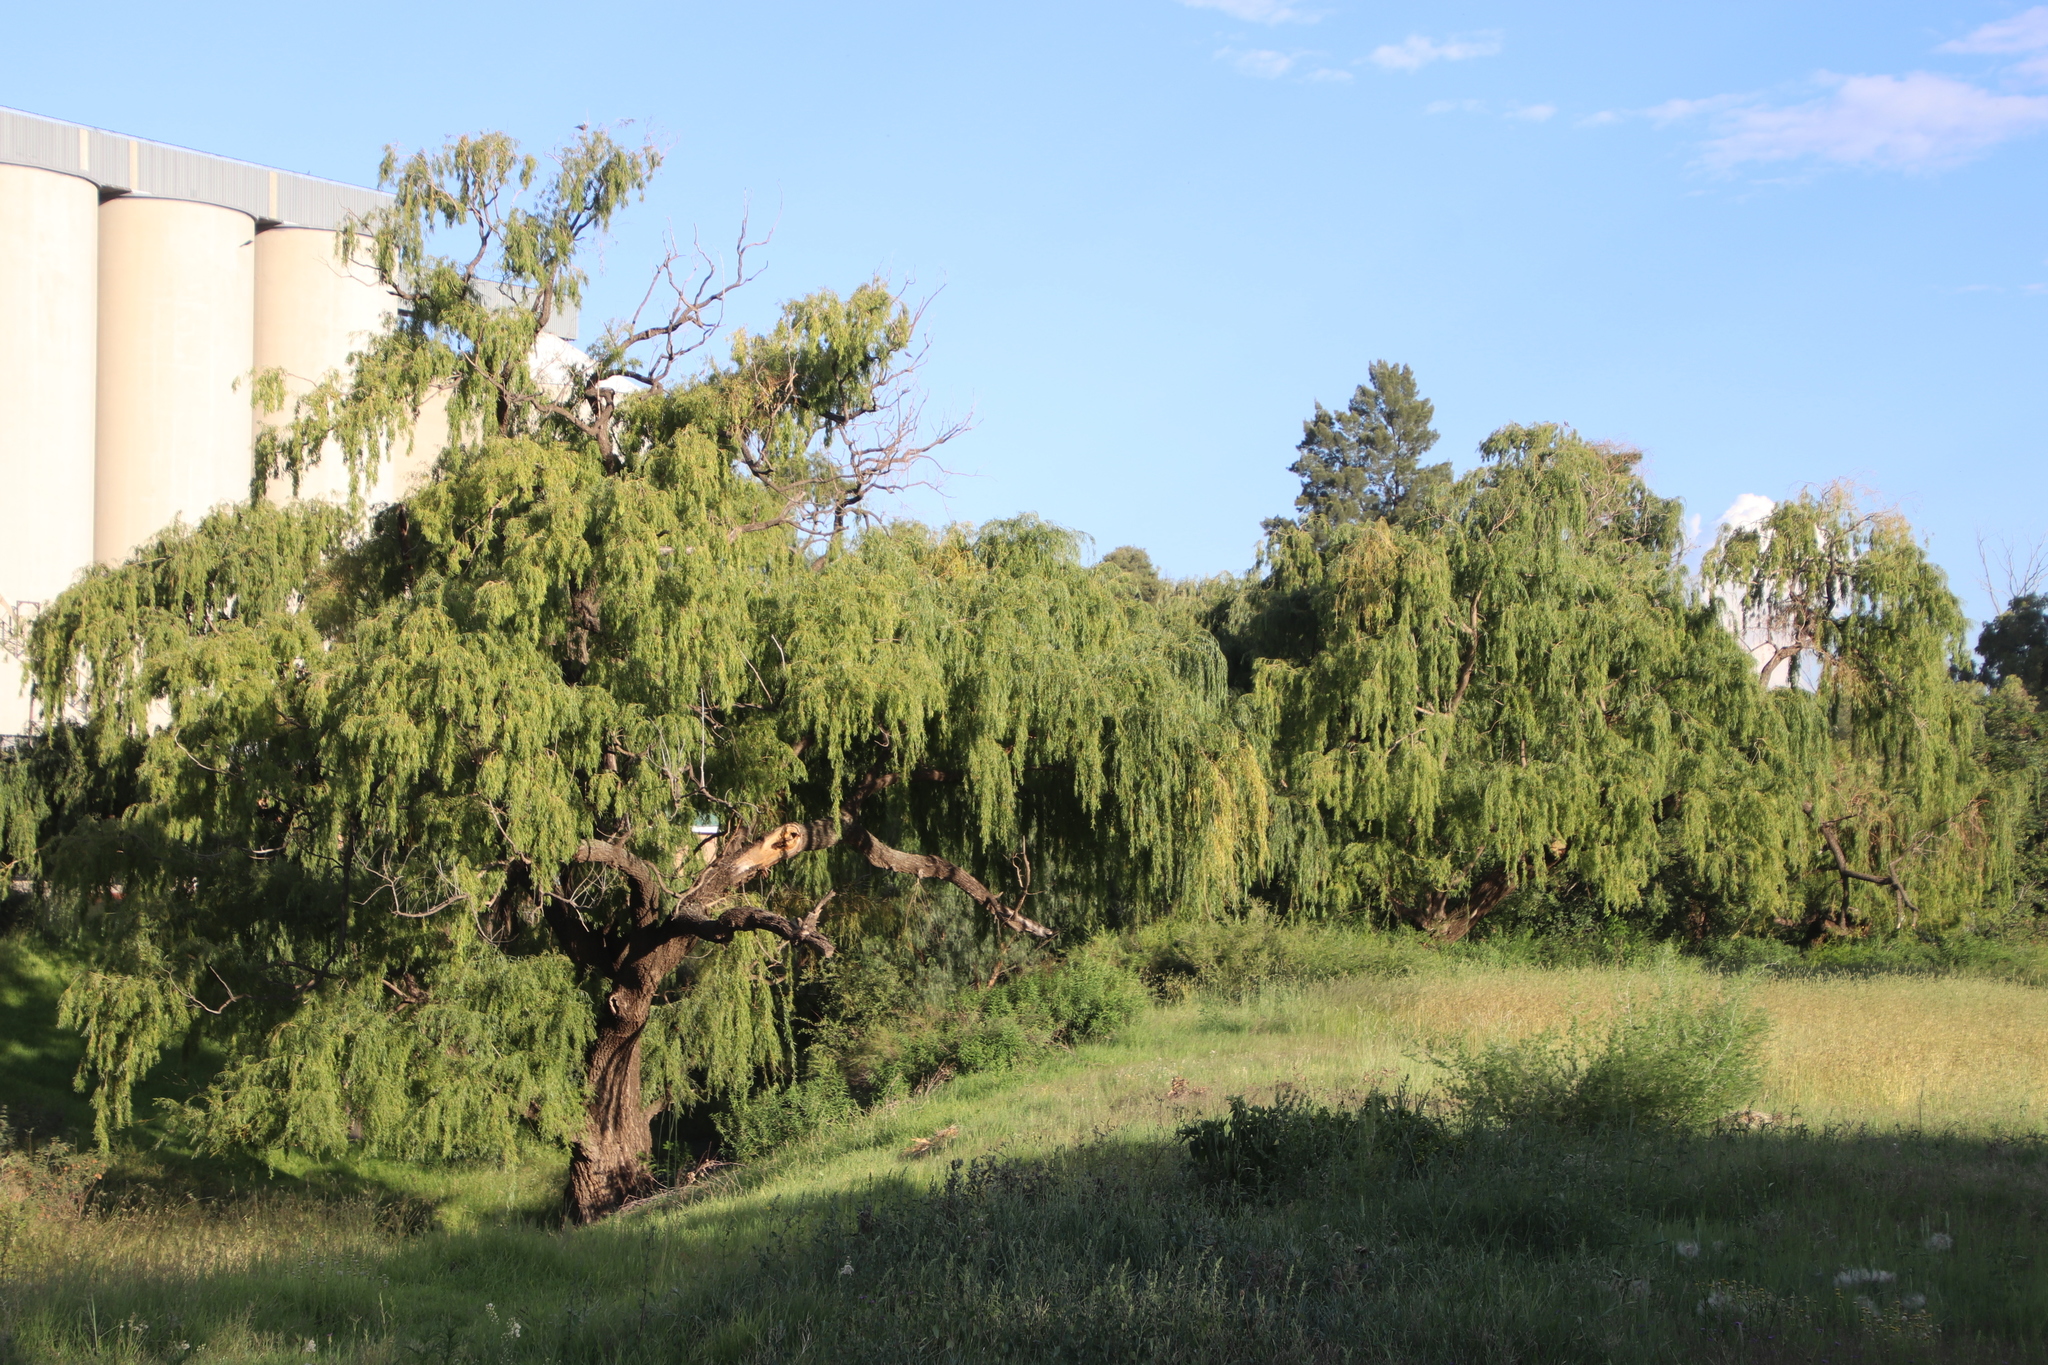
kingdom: Plantae
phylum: Tracheophyta
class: Magnoliopsida
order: Malpighiales
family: Salicaceae
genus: Salix
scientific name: Salix babylonica
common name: Weeping willow
